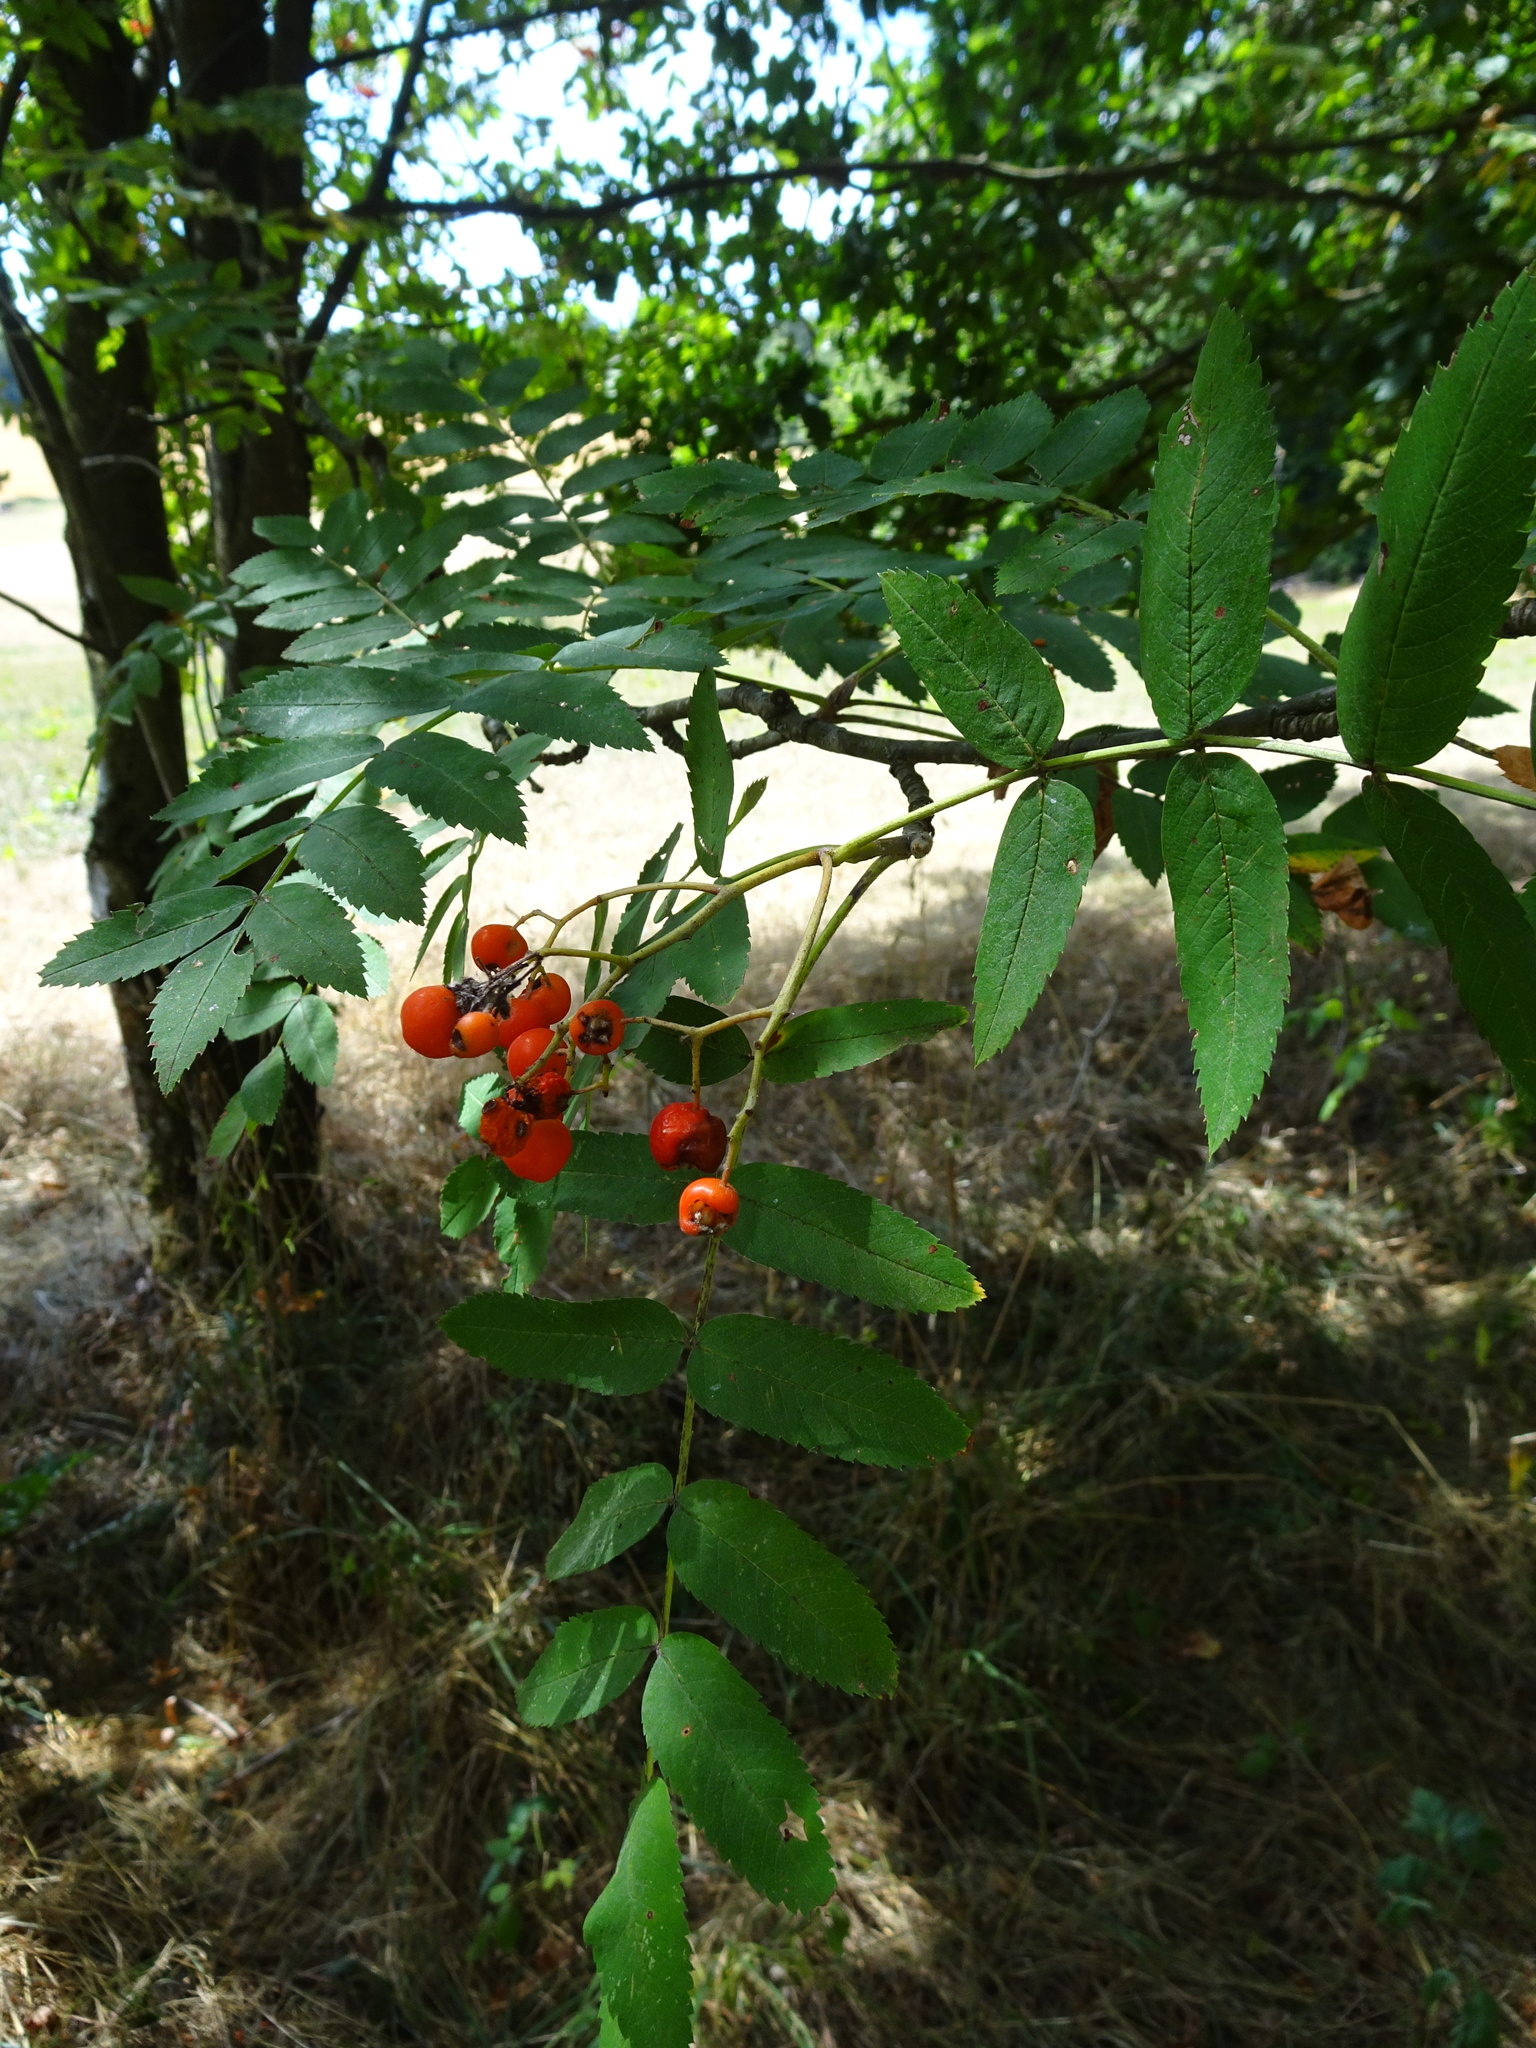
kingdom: Plantae
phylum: Tracheophyta
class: Magnoliopsida
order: Rosales
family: Rosaceae
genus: Sorbus
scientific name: Sorbus aucuparia
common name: Rowan
